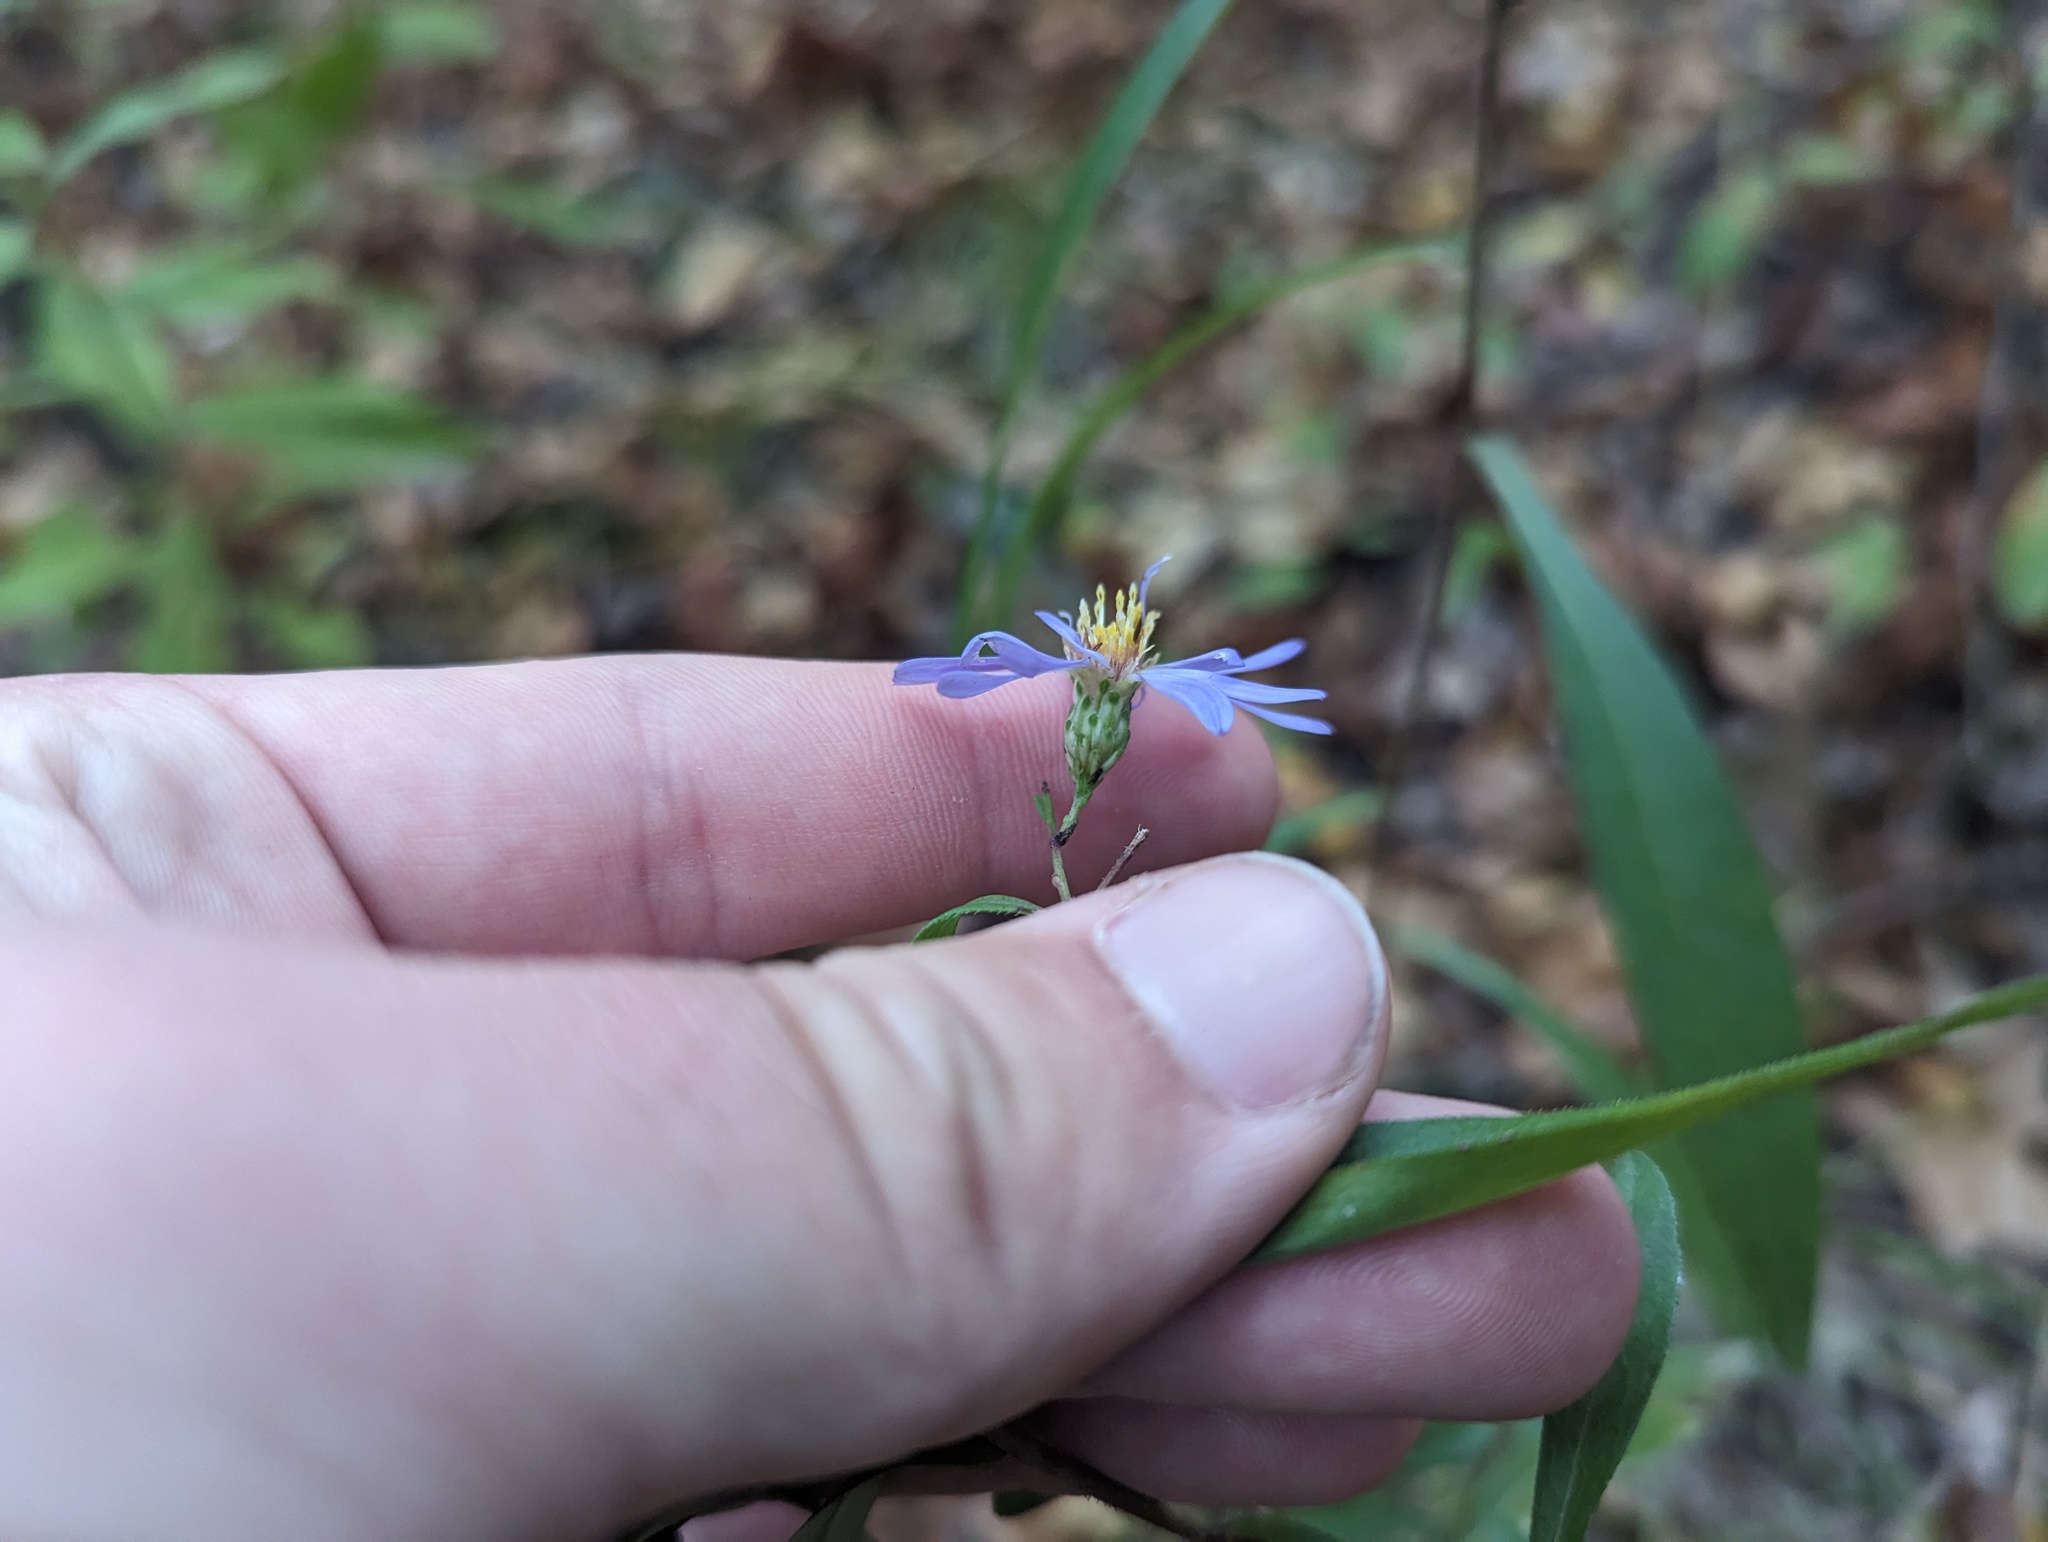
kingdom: Plantae
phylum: Tracheophyta
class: Magnoliopsida
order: Asterales
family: Asteraceae
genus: Symphyotrichum
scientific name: Symphyotrichum turbinellum
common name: Prairie aster
